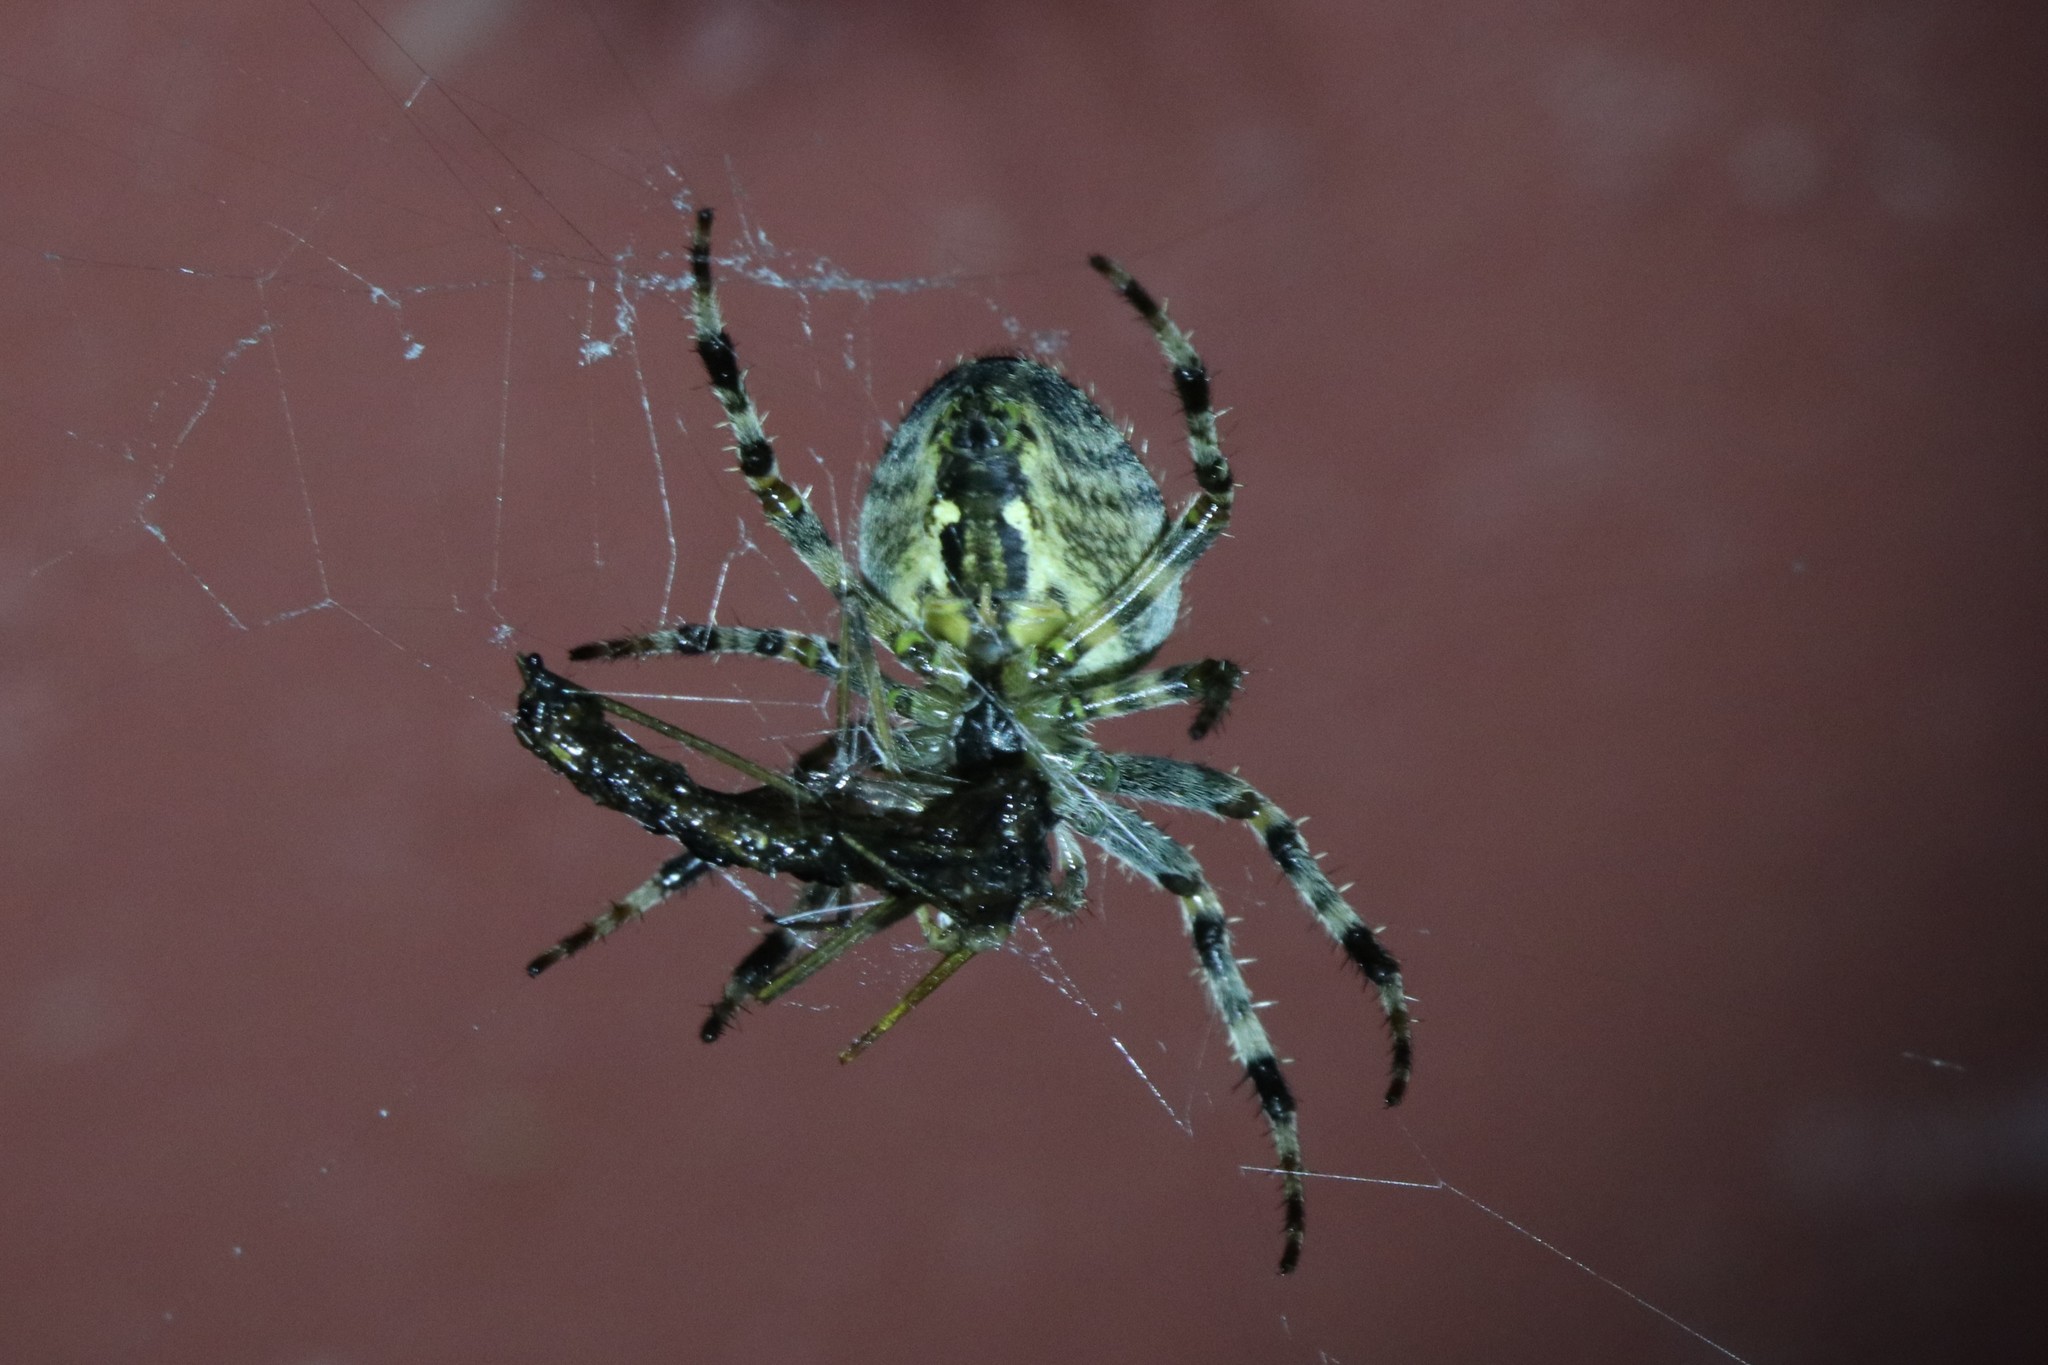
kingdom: Animalia
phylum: Arthropoda
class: Arachnida
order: Araneae
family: Araneidae
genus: Araneus
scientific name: Araneus diadematus
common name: Cross orbweaver
